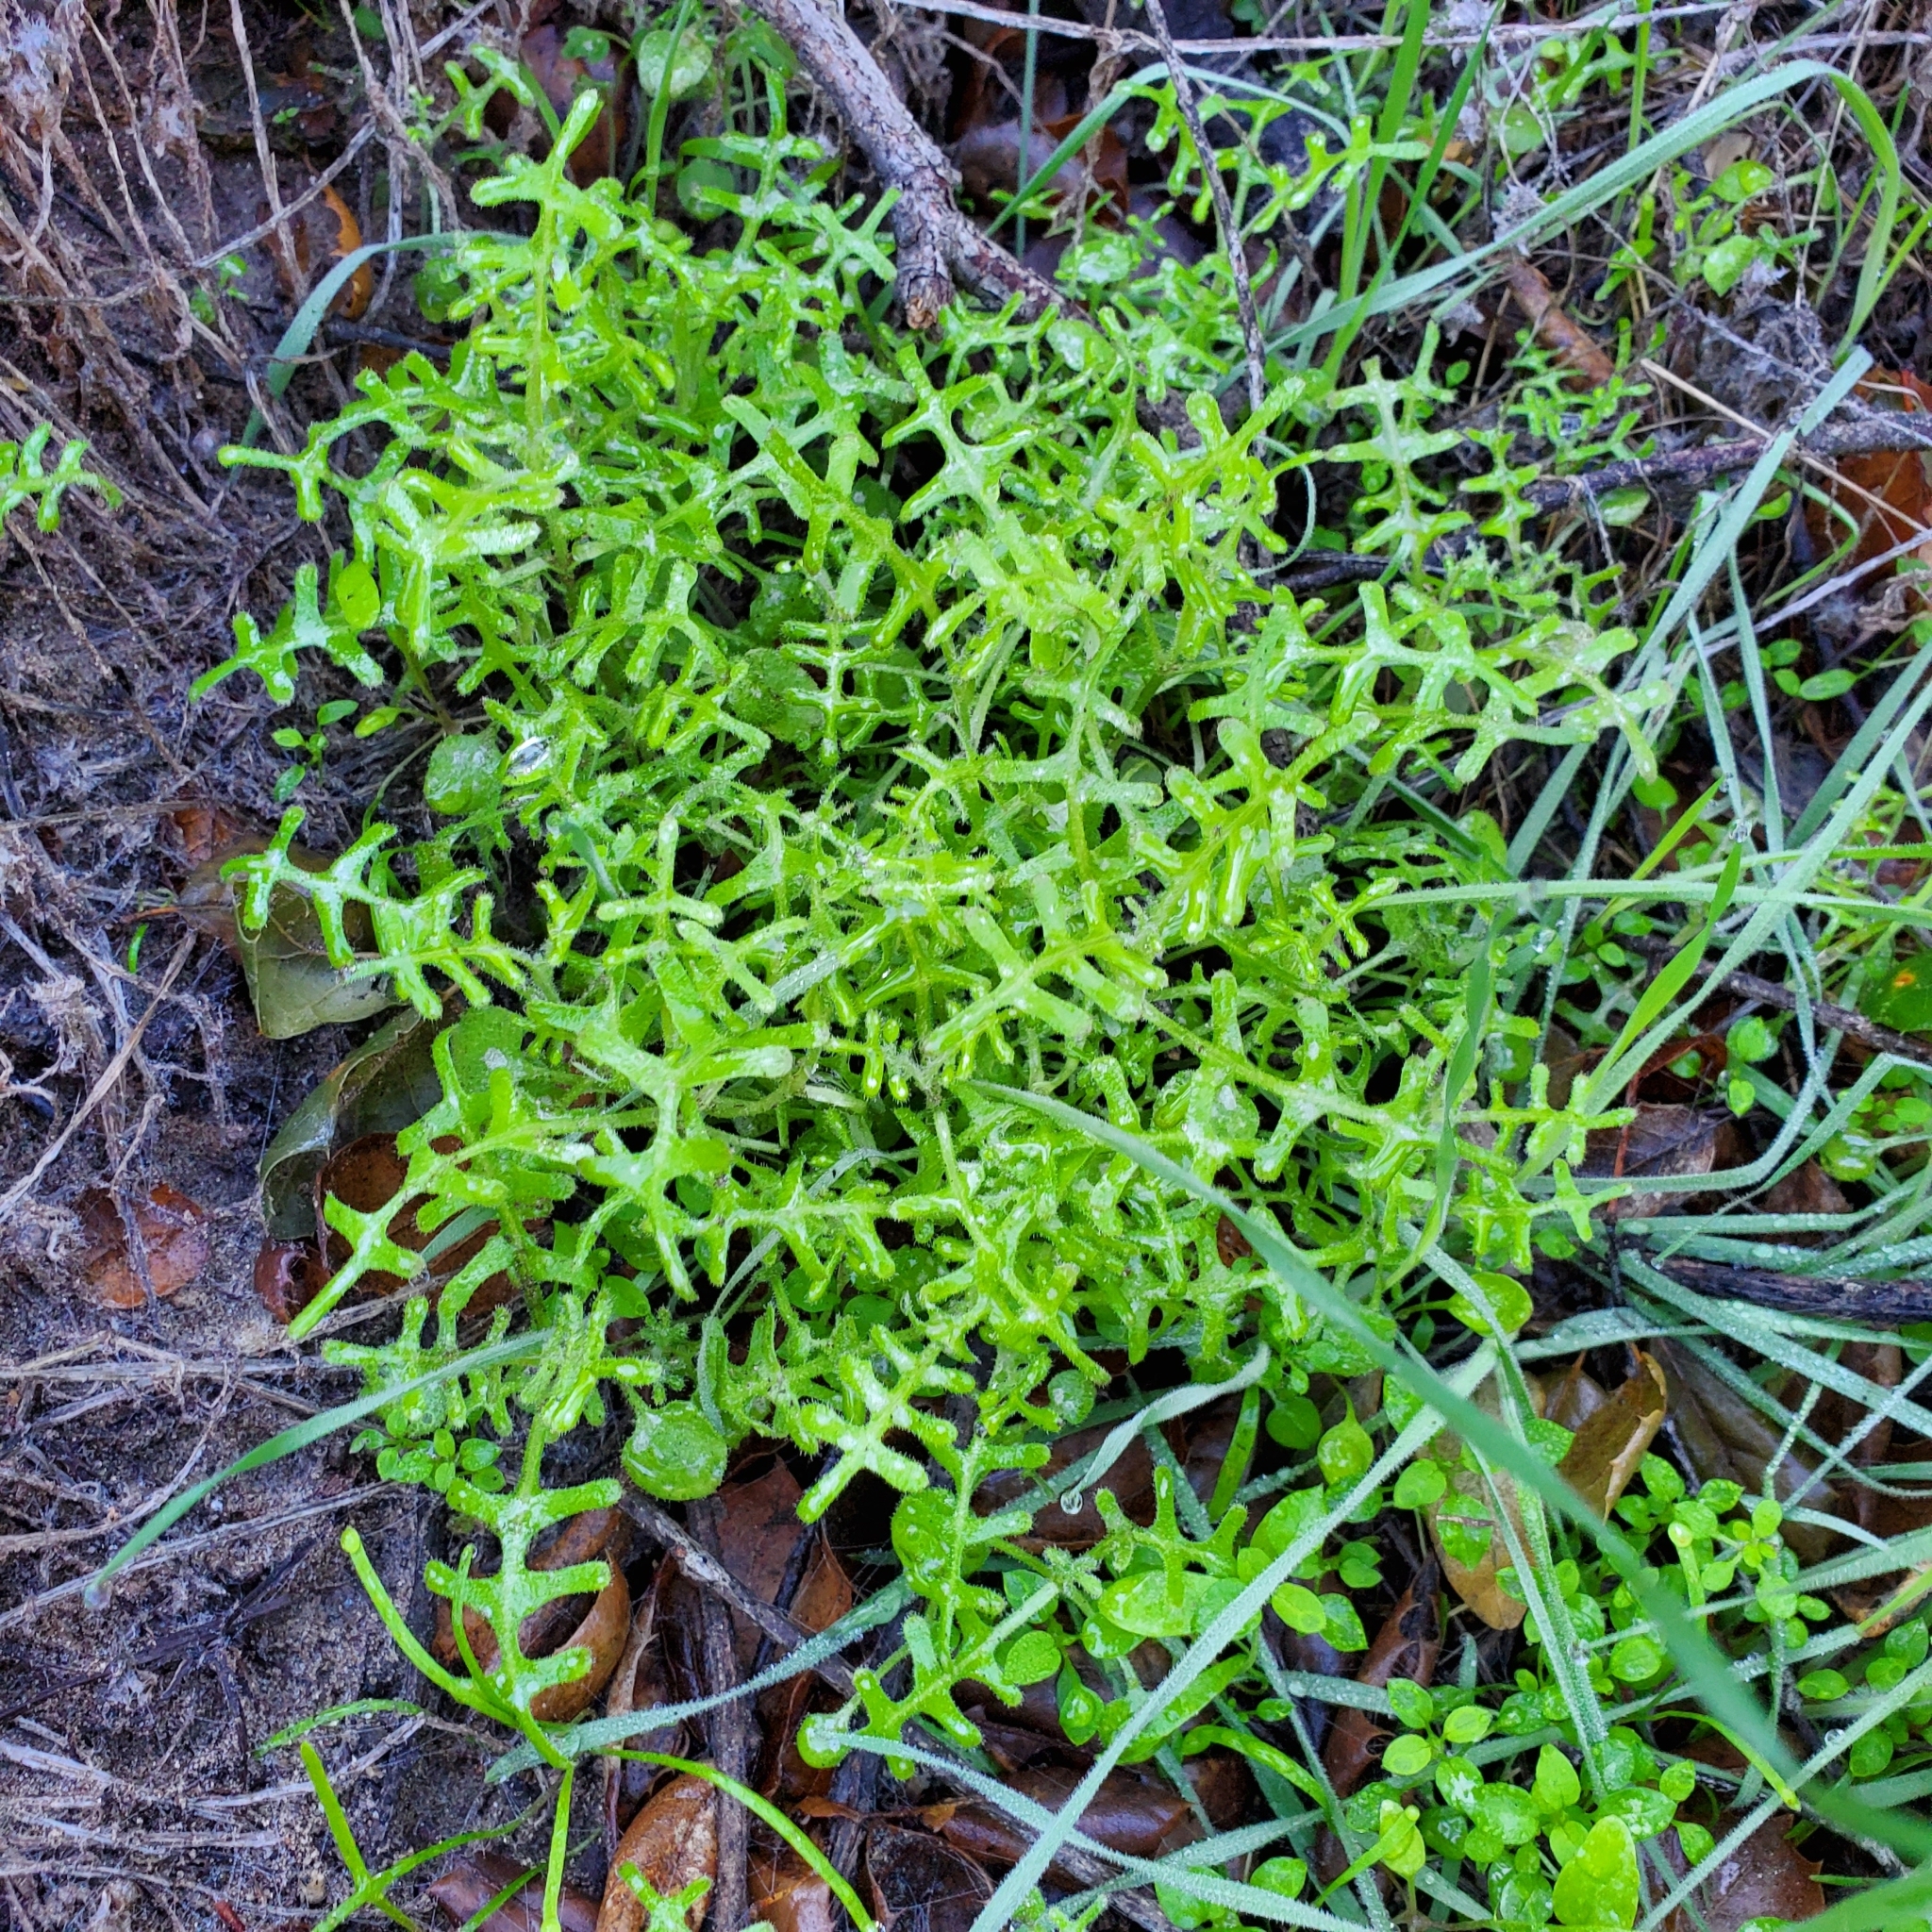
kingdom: Plantae
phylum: Tracheophyta
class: Magnoliopsida
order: Boraginales
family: Hydrophyllaceae
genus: Pholistoma
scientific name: Pholistoma auritum
